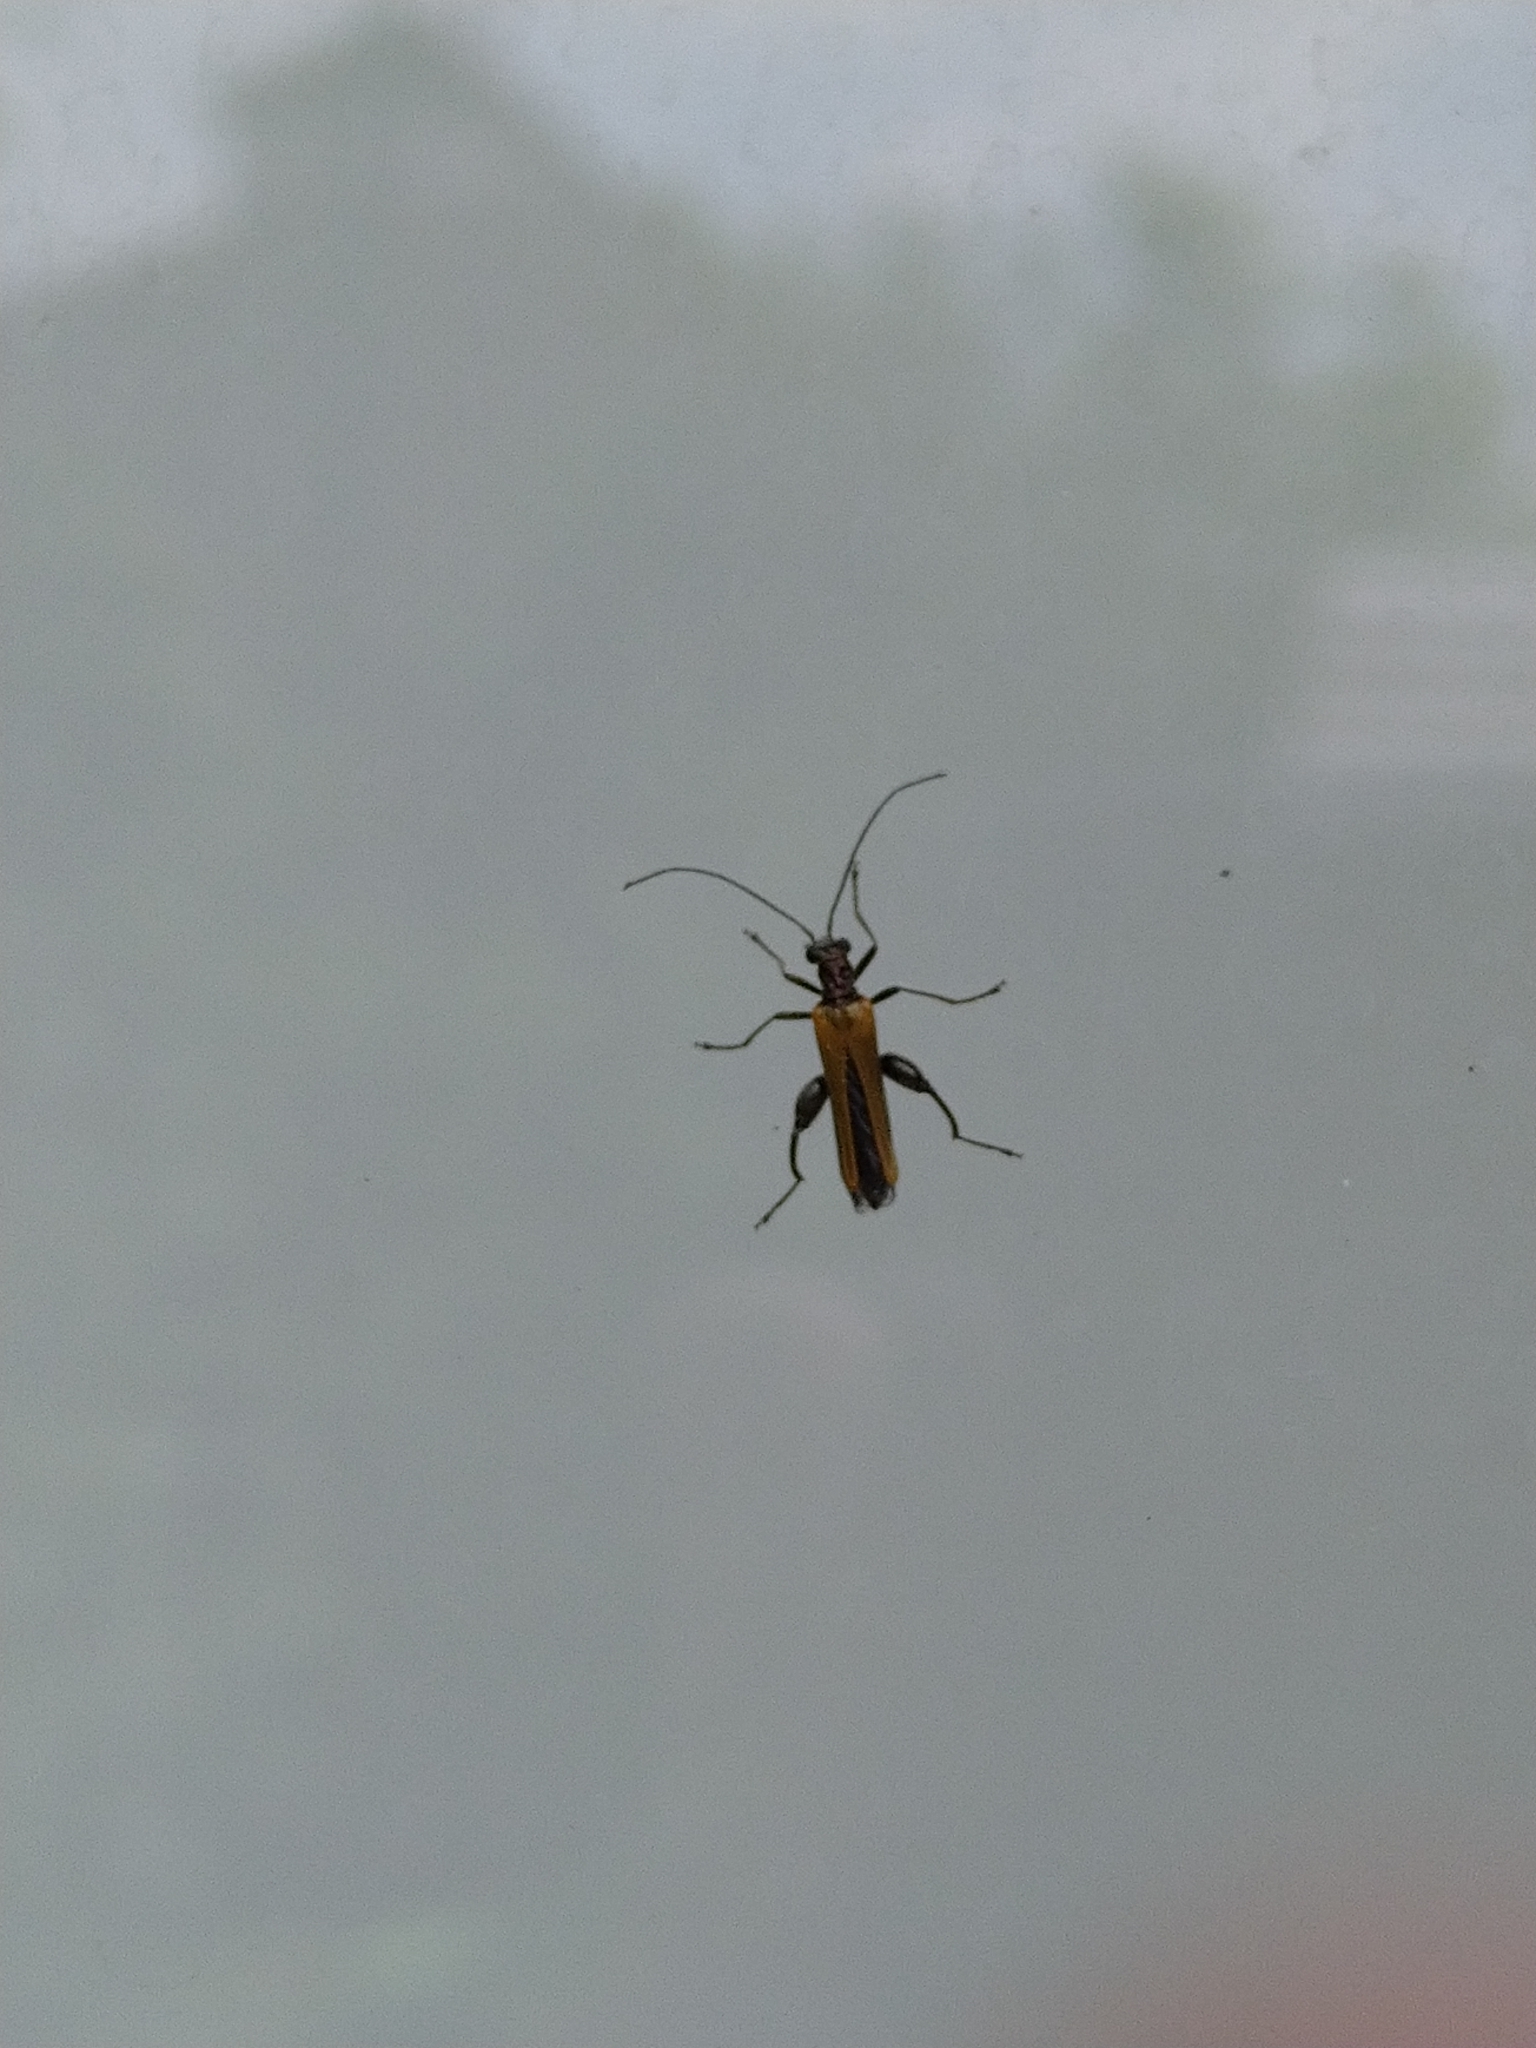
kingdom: Animalia
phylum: Arthropoda
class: Insecta
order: Coleoptera
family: Oedemeridae
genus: Oedemera
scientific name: Oedemera femorata
